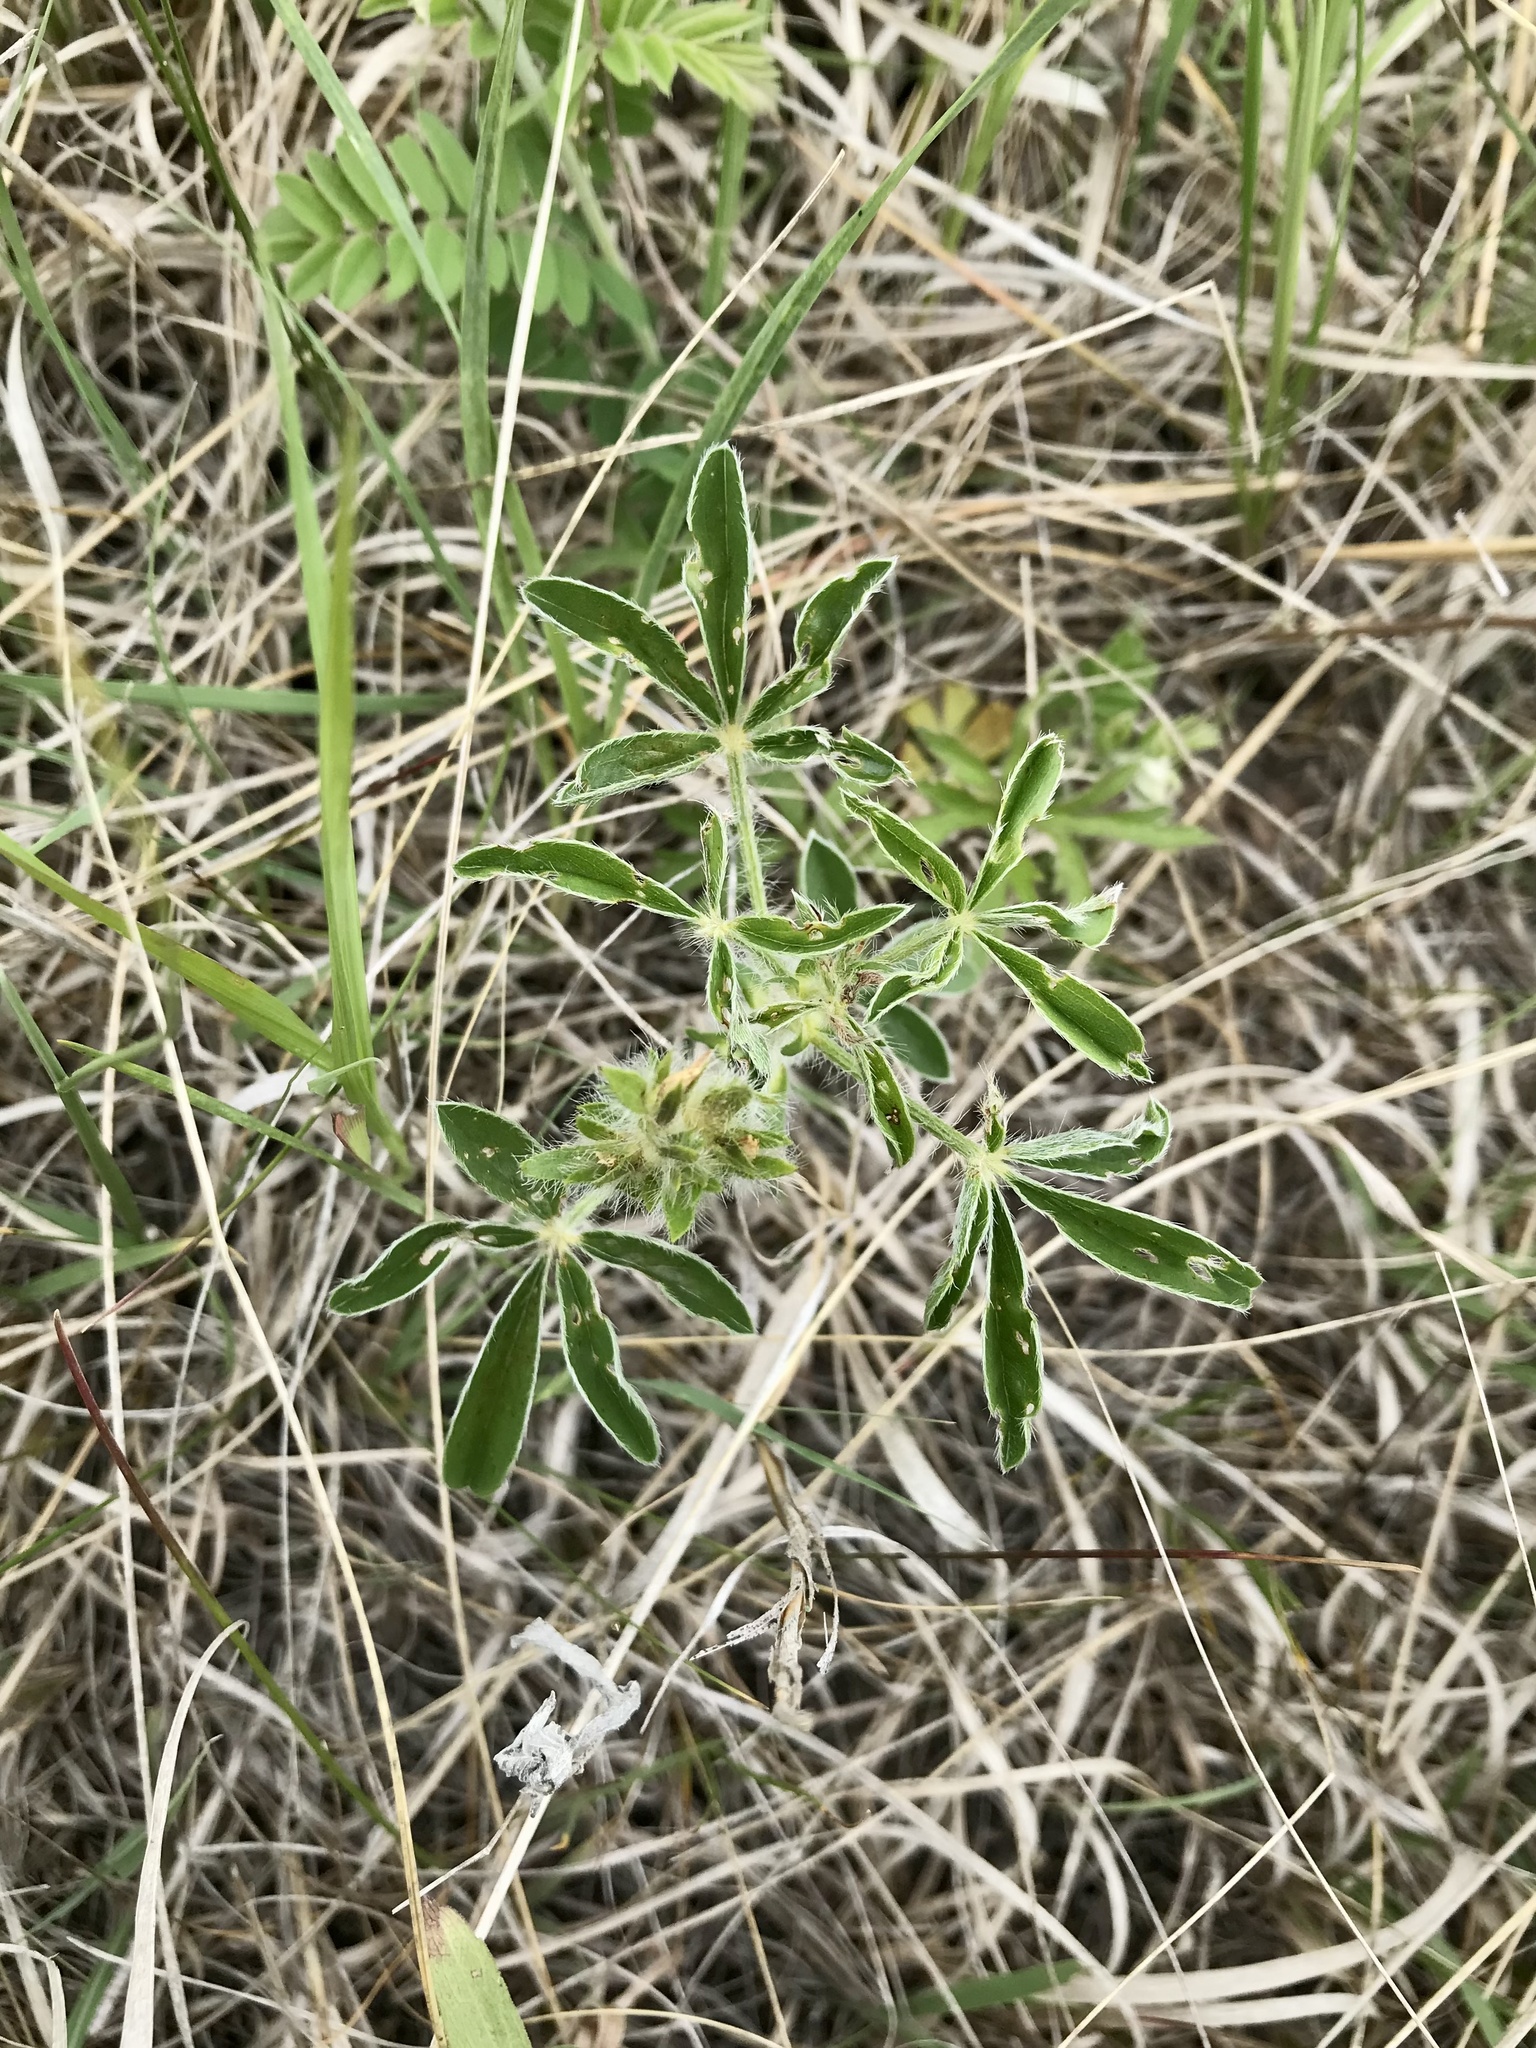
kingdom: Plantae
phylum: Tracheophyta
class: Magnoliopsida
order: Fabales
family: Fabaceae
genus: Pediomelum
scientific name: Pediomelum esculentum
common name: Indian-turnip
